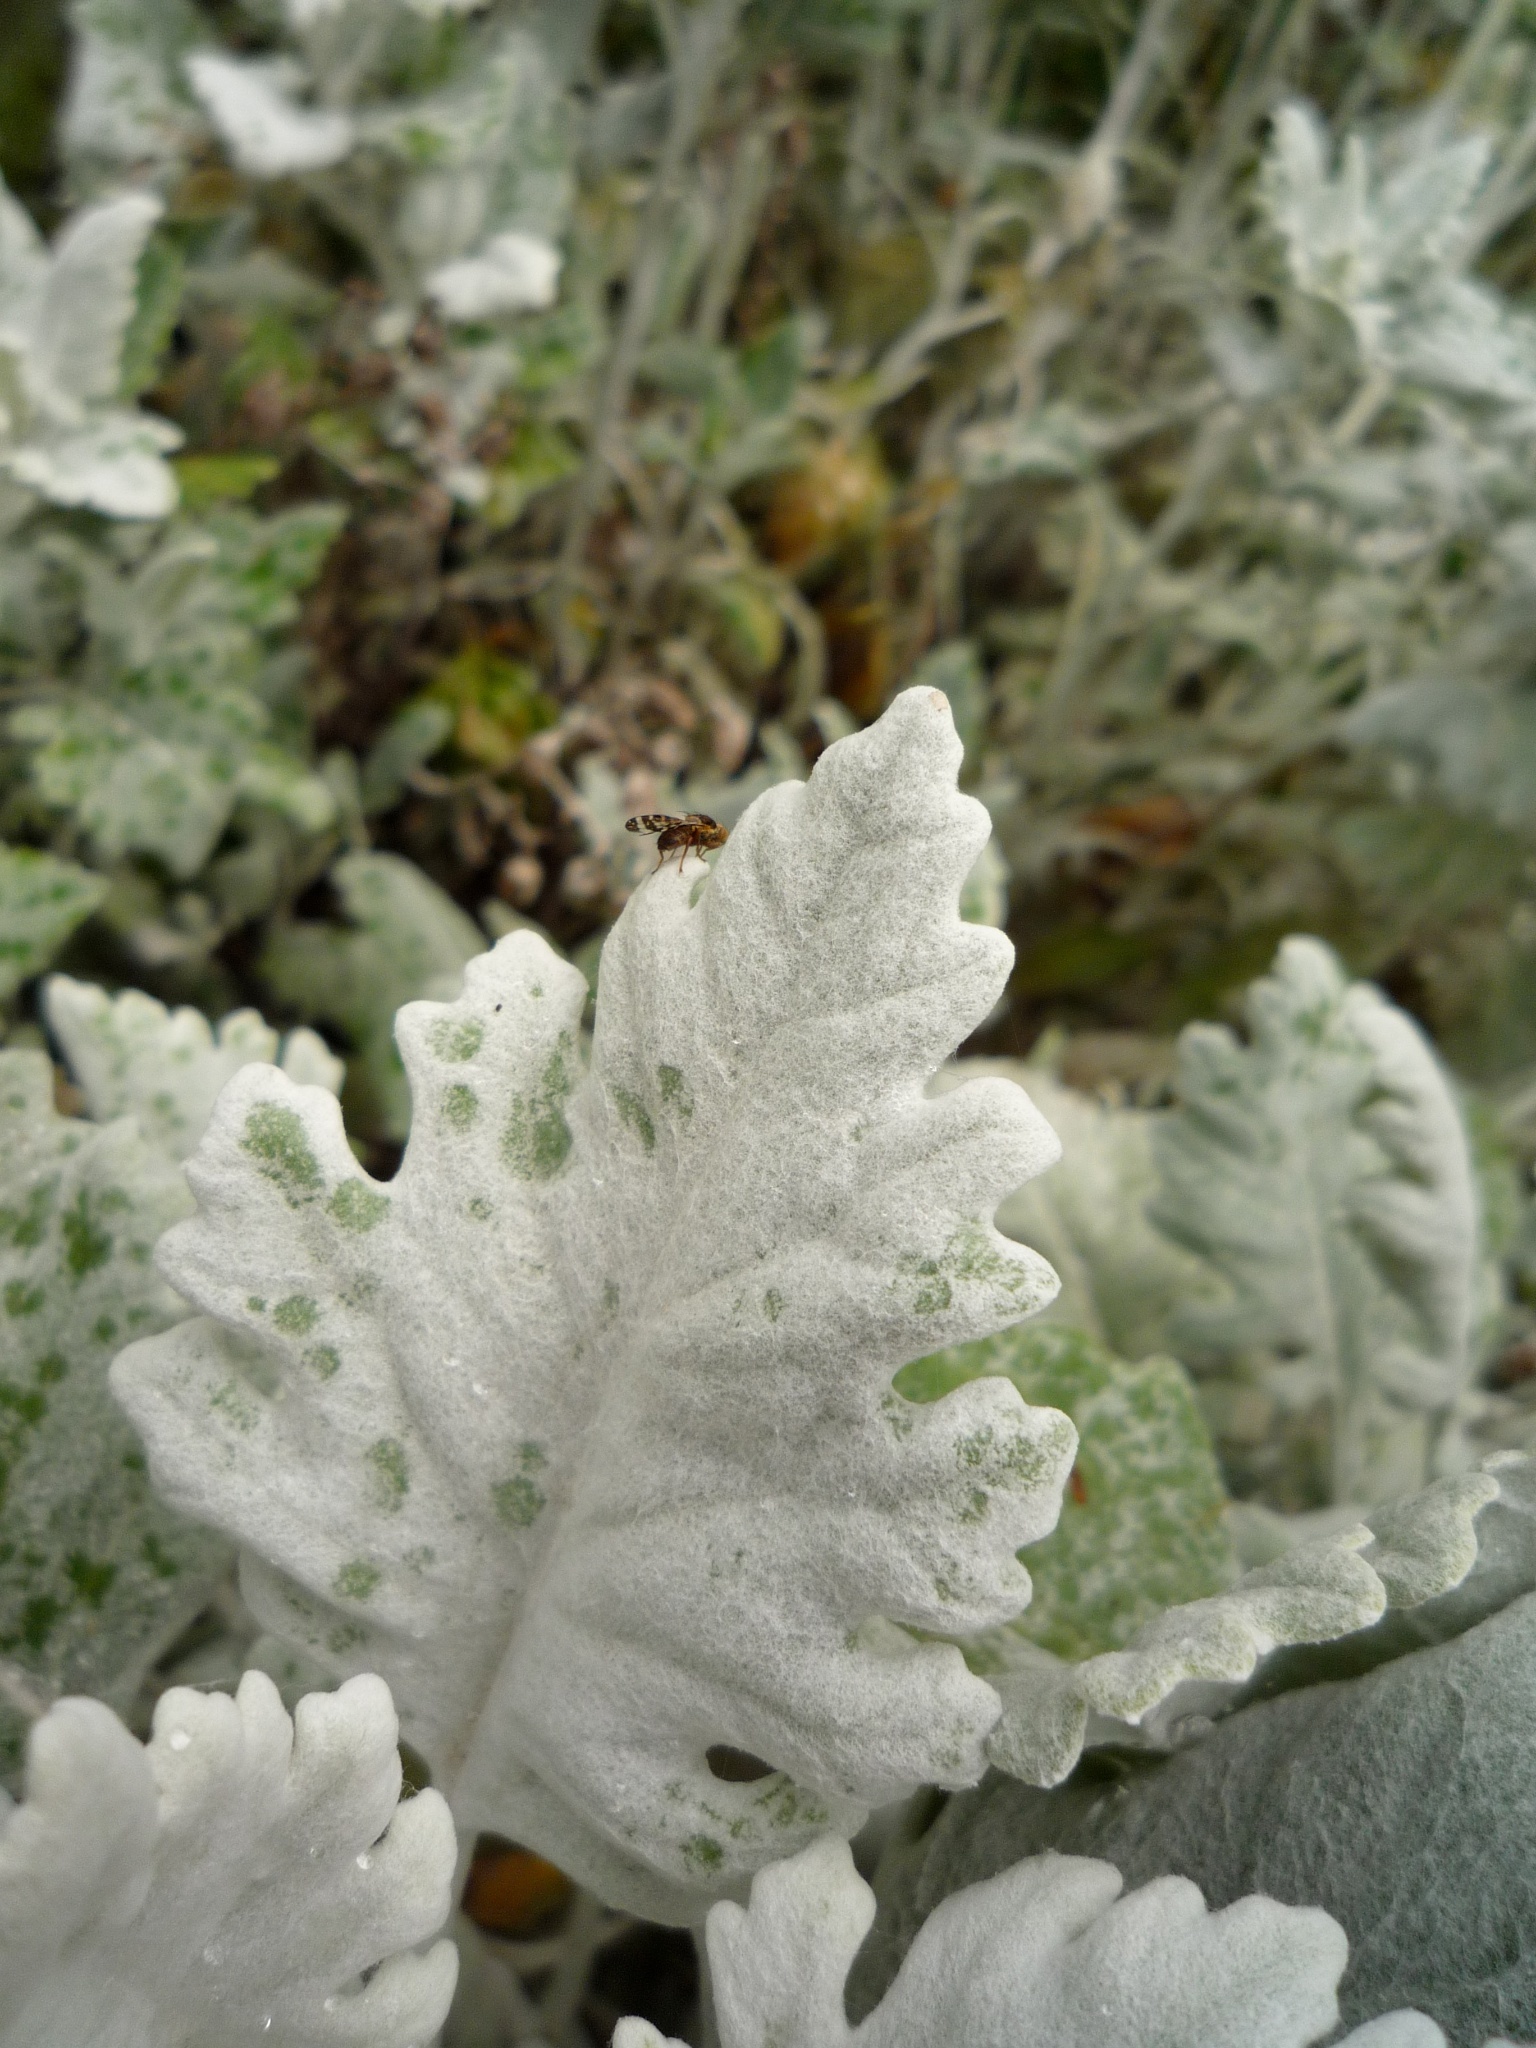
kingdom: Animalia
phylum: Arthropoda
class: Insecta
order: Diptera
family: Tephritidae
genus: Sphenella
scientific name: Sphenella
